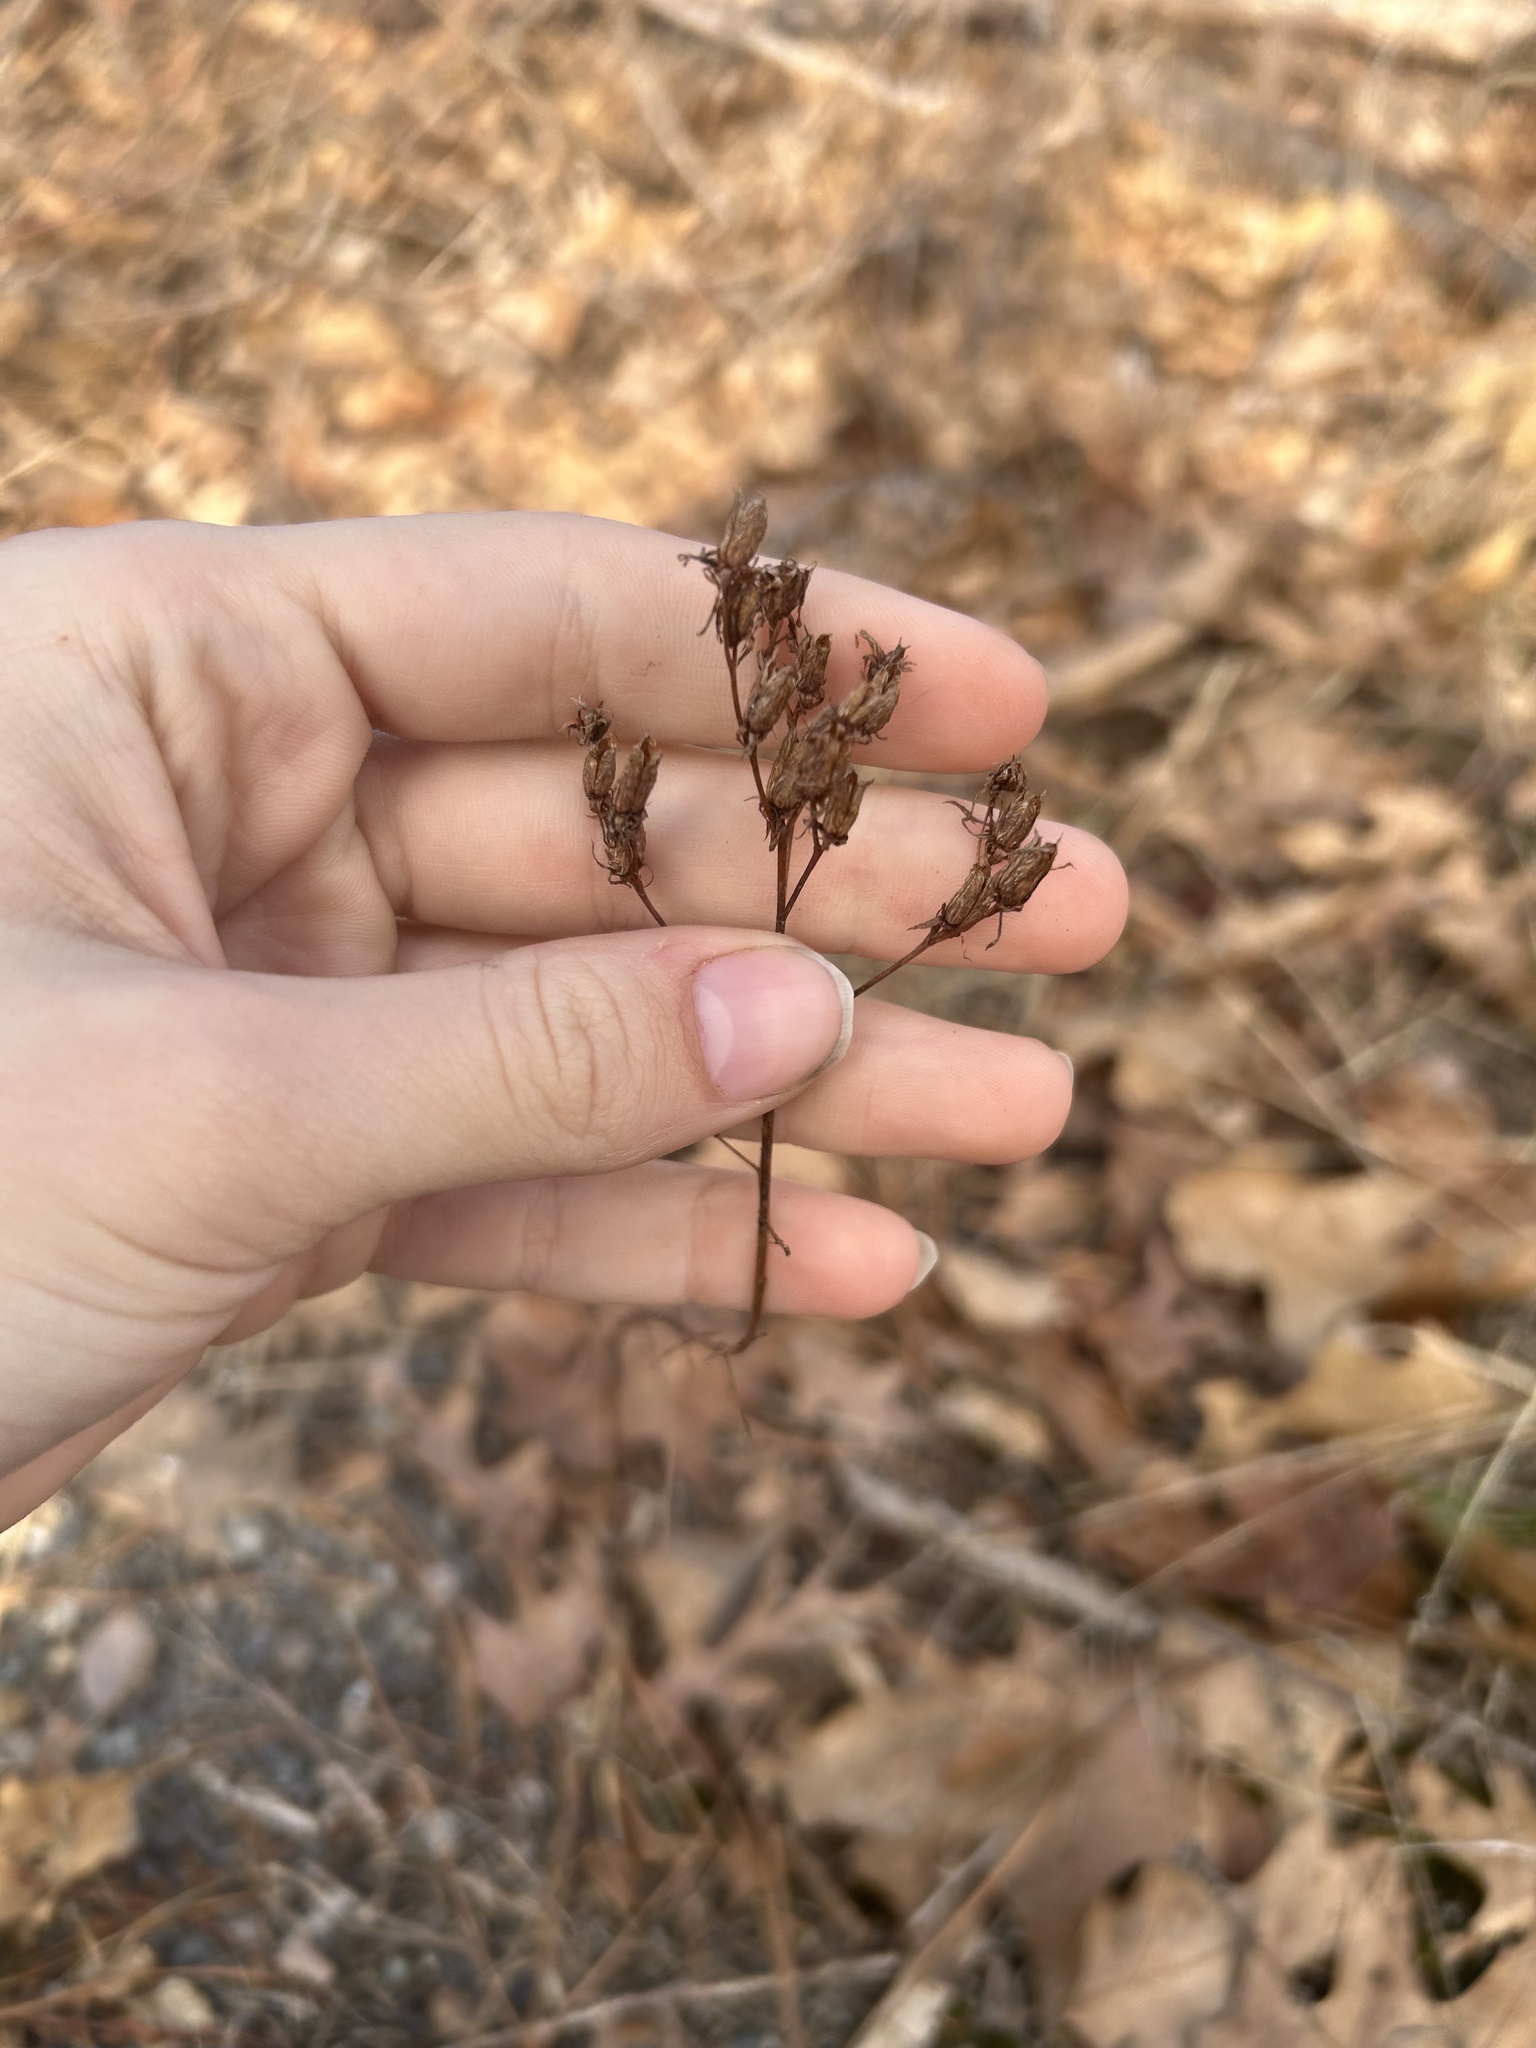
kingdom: Plantae
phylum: Tracheophyta
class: Magnoliopsida
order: Malpighiales
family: Hypericaceae
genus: Hypericum
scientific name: Hypericum majus
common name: Greater canadian st. john's-wort
